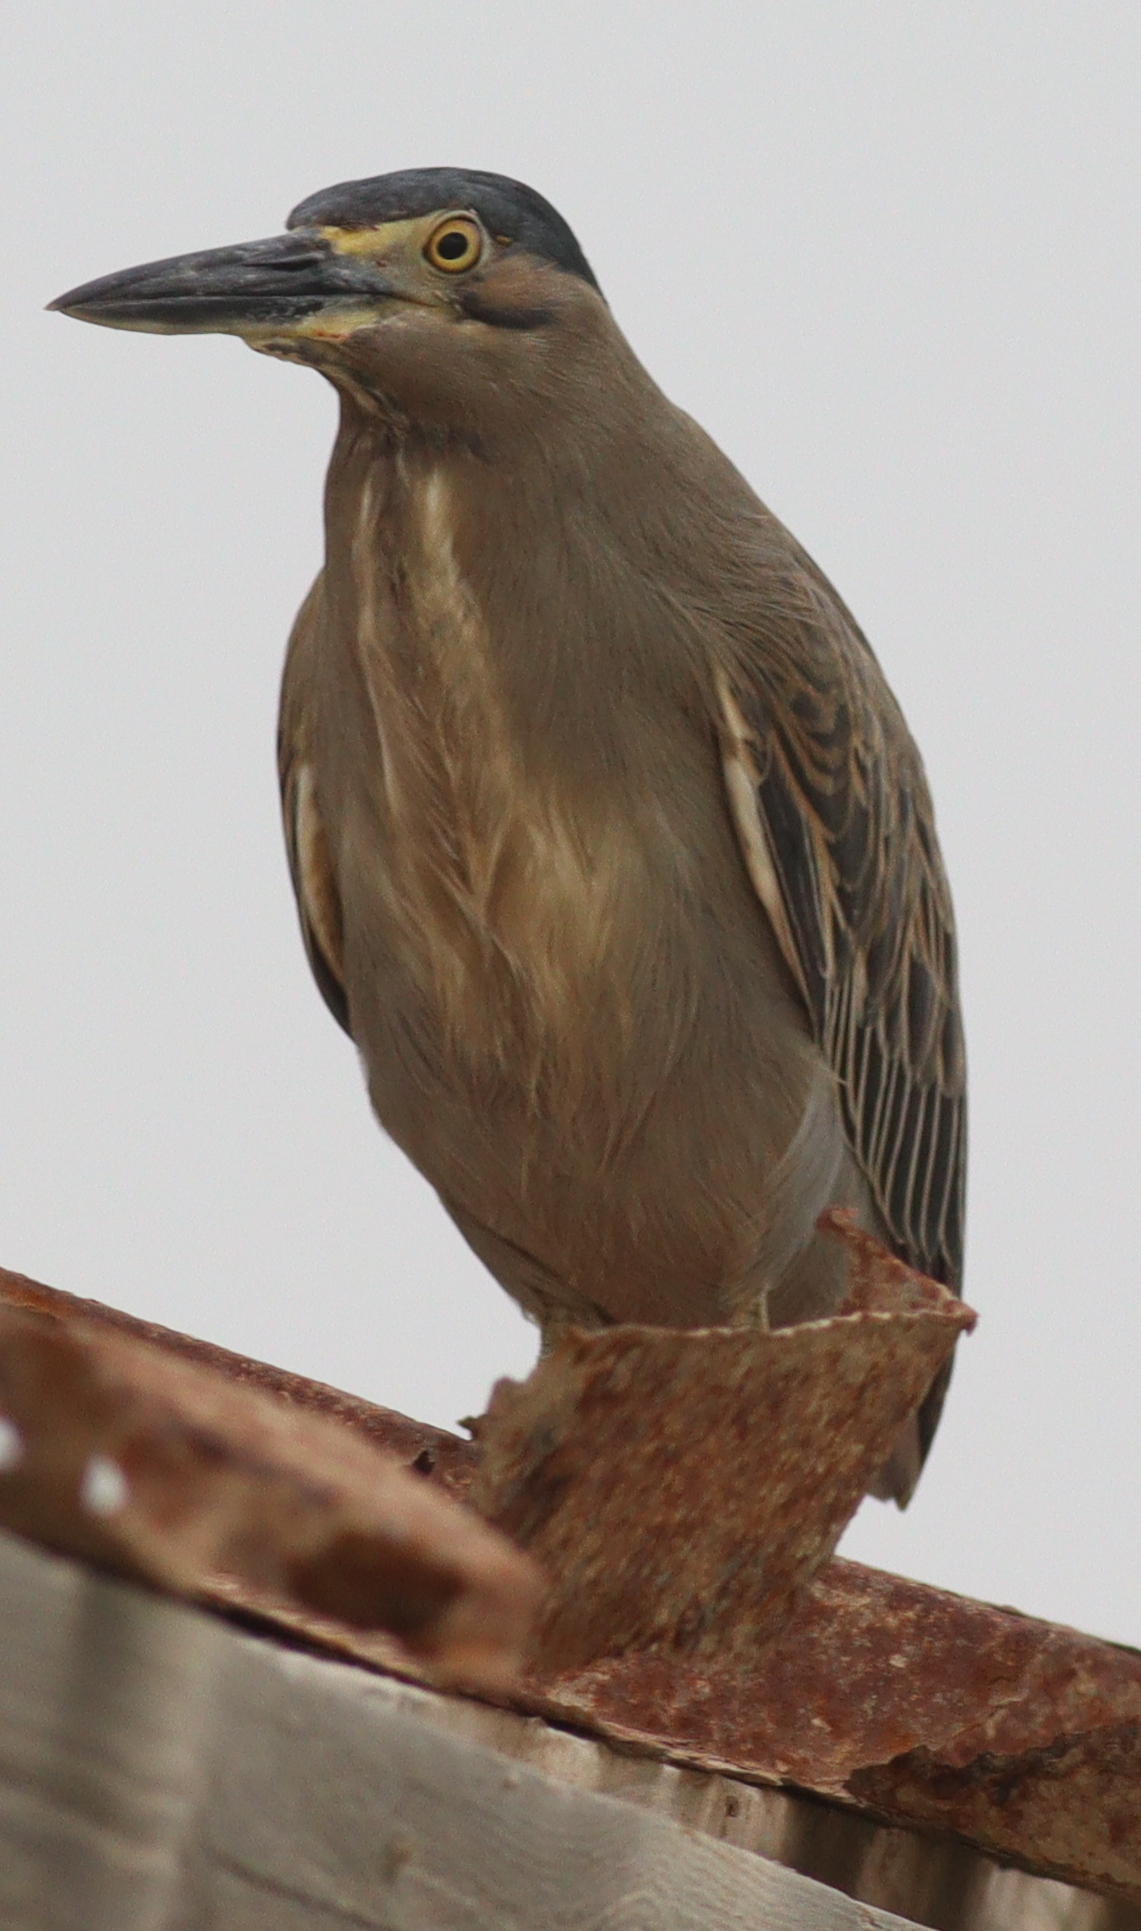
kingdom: Animalia
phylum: Chordata
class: Aves
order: Pelecaniformes
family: Ardeidae
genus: Butorides
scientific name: Butorides striata
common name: Striated heron
